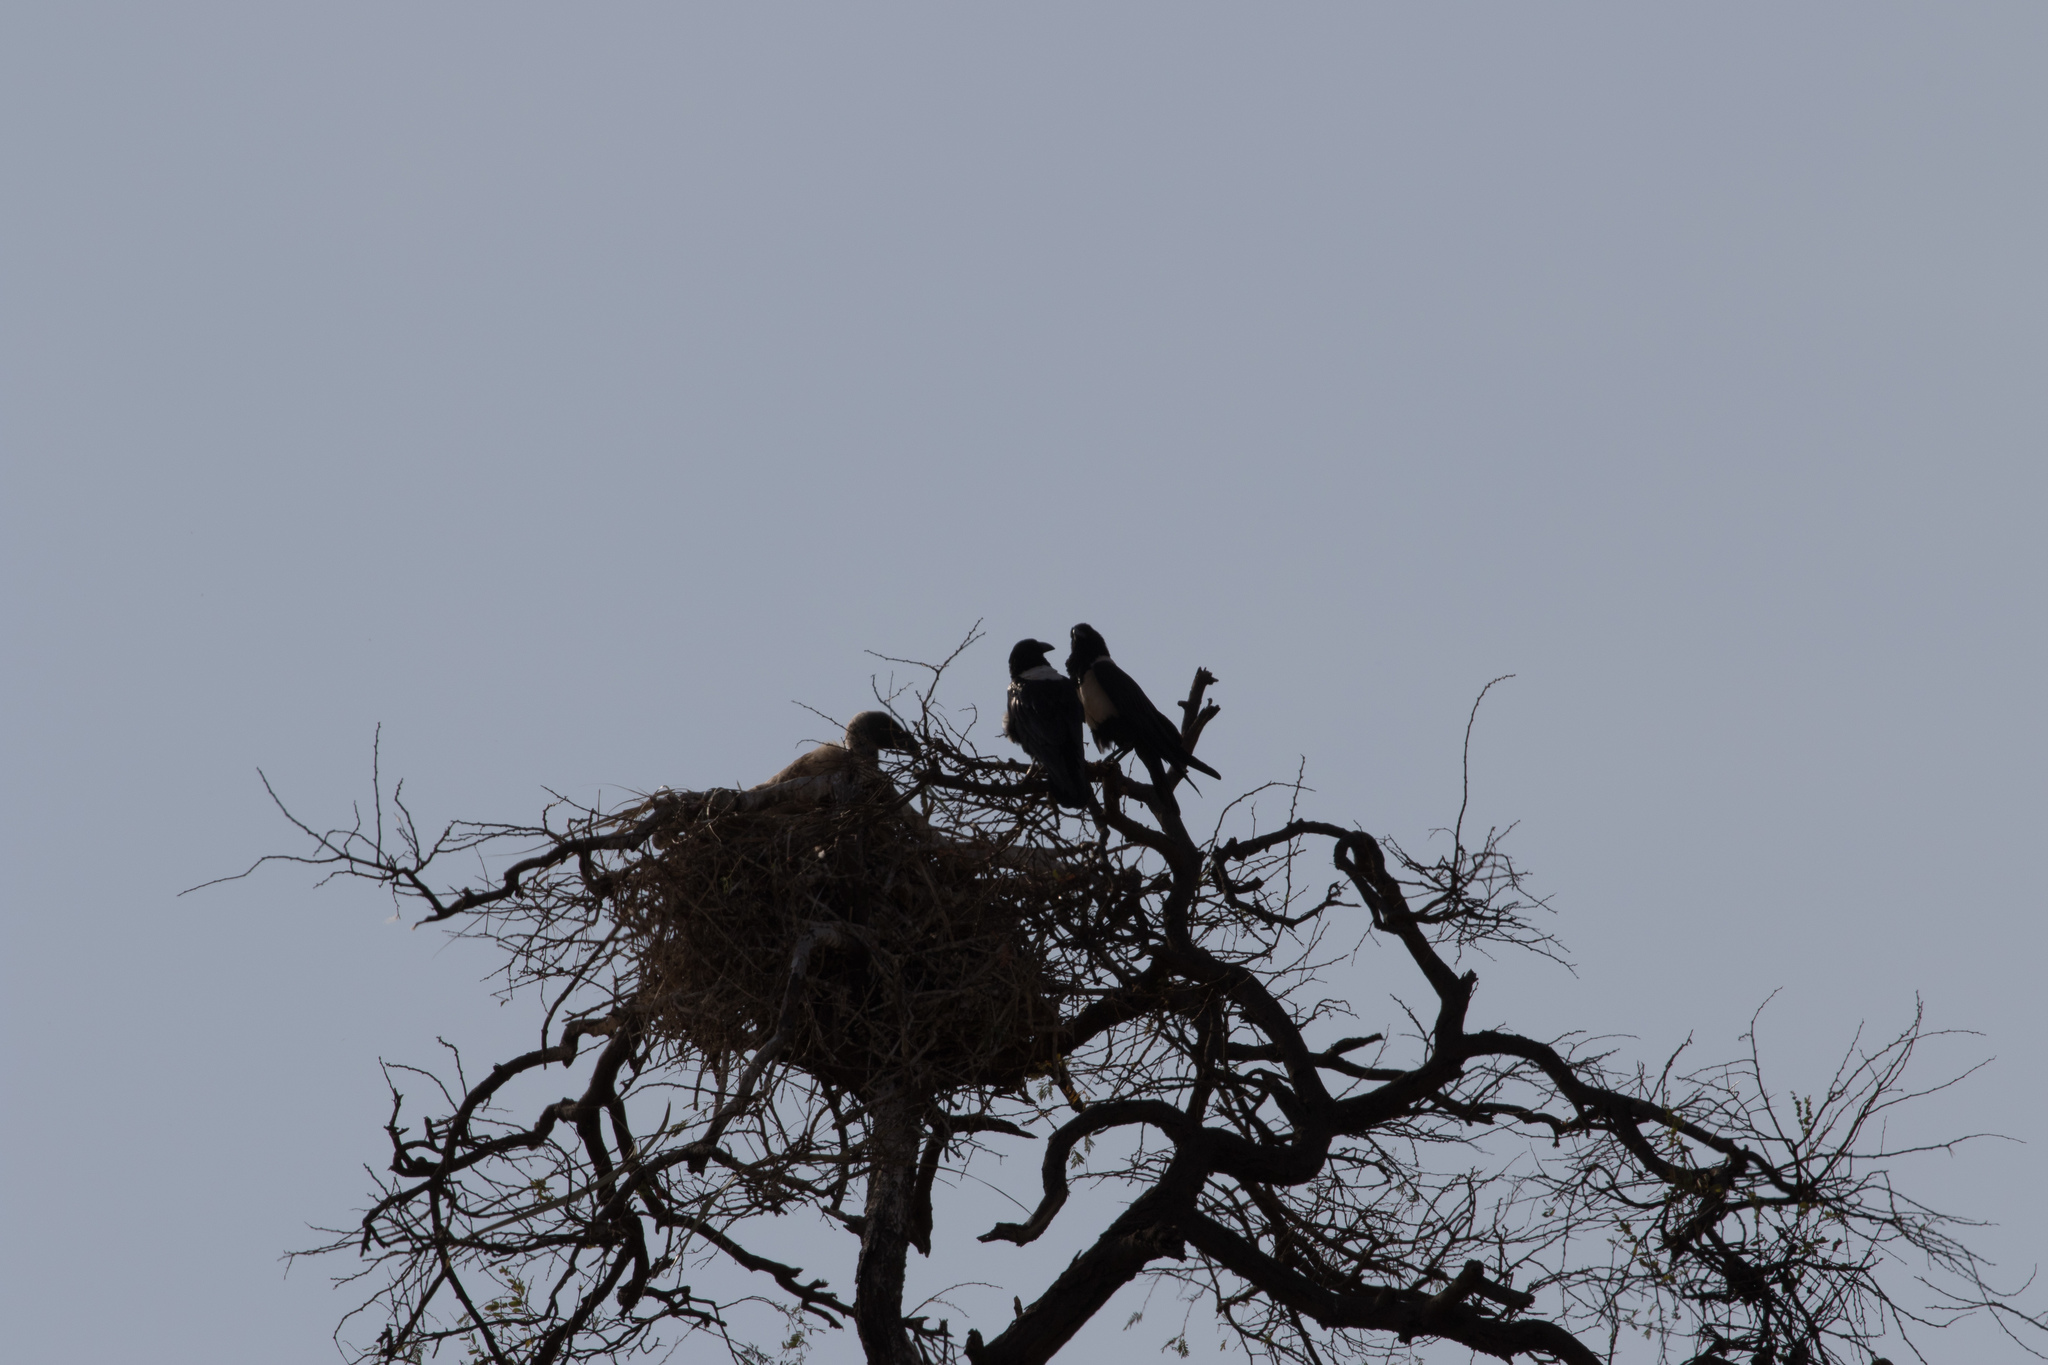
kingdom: Animalia
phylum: Chordata
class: Aves
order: Passeriformes
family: Corvidae
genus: Corvus
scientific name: Corvus albus
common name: Pied crow
